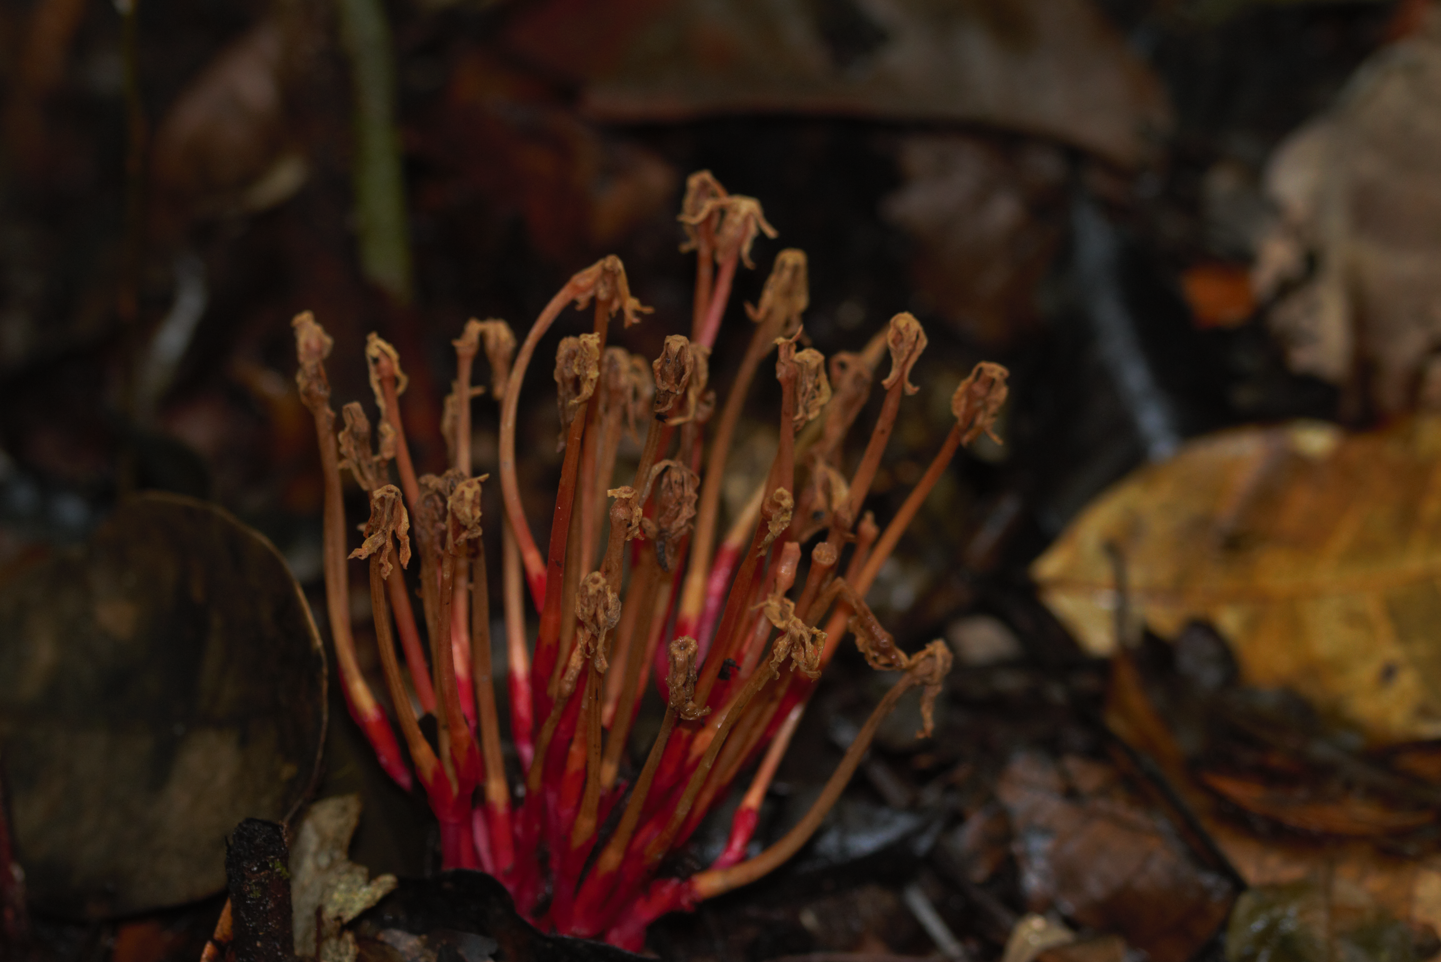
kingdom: Plantae
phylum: Tracheophyta
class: Magnoliopsida
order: Gentianales
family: Gentianaceae
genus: Voyria
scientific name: Voyria rosea
